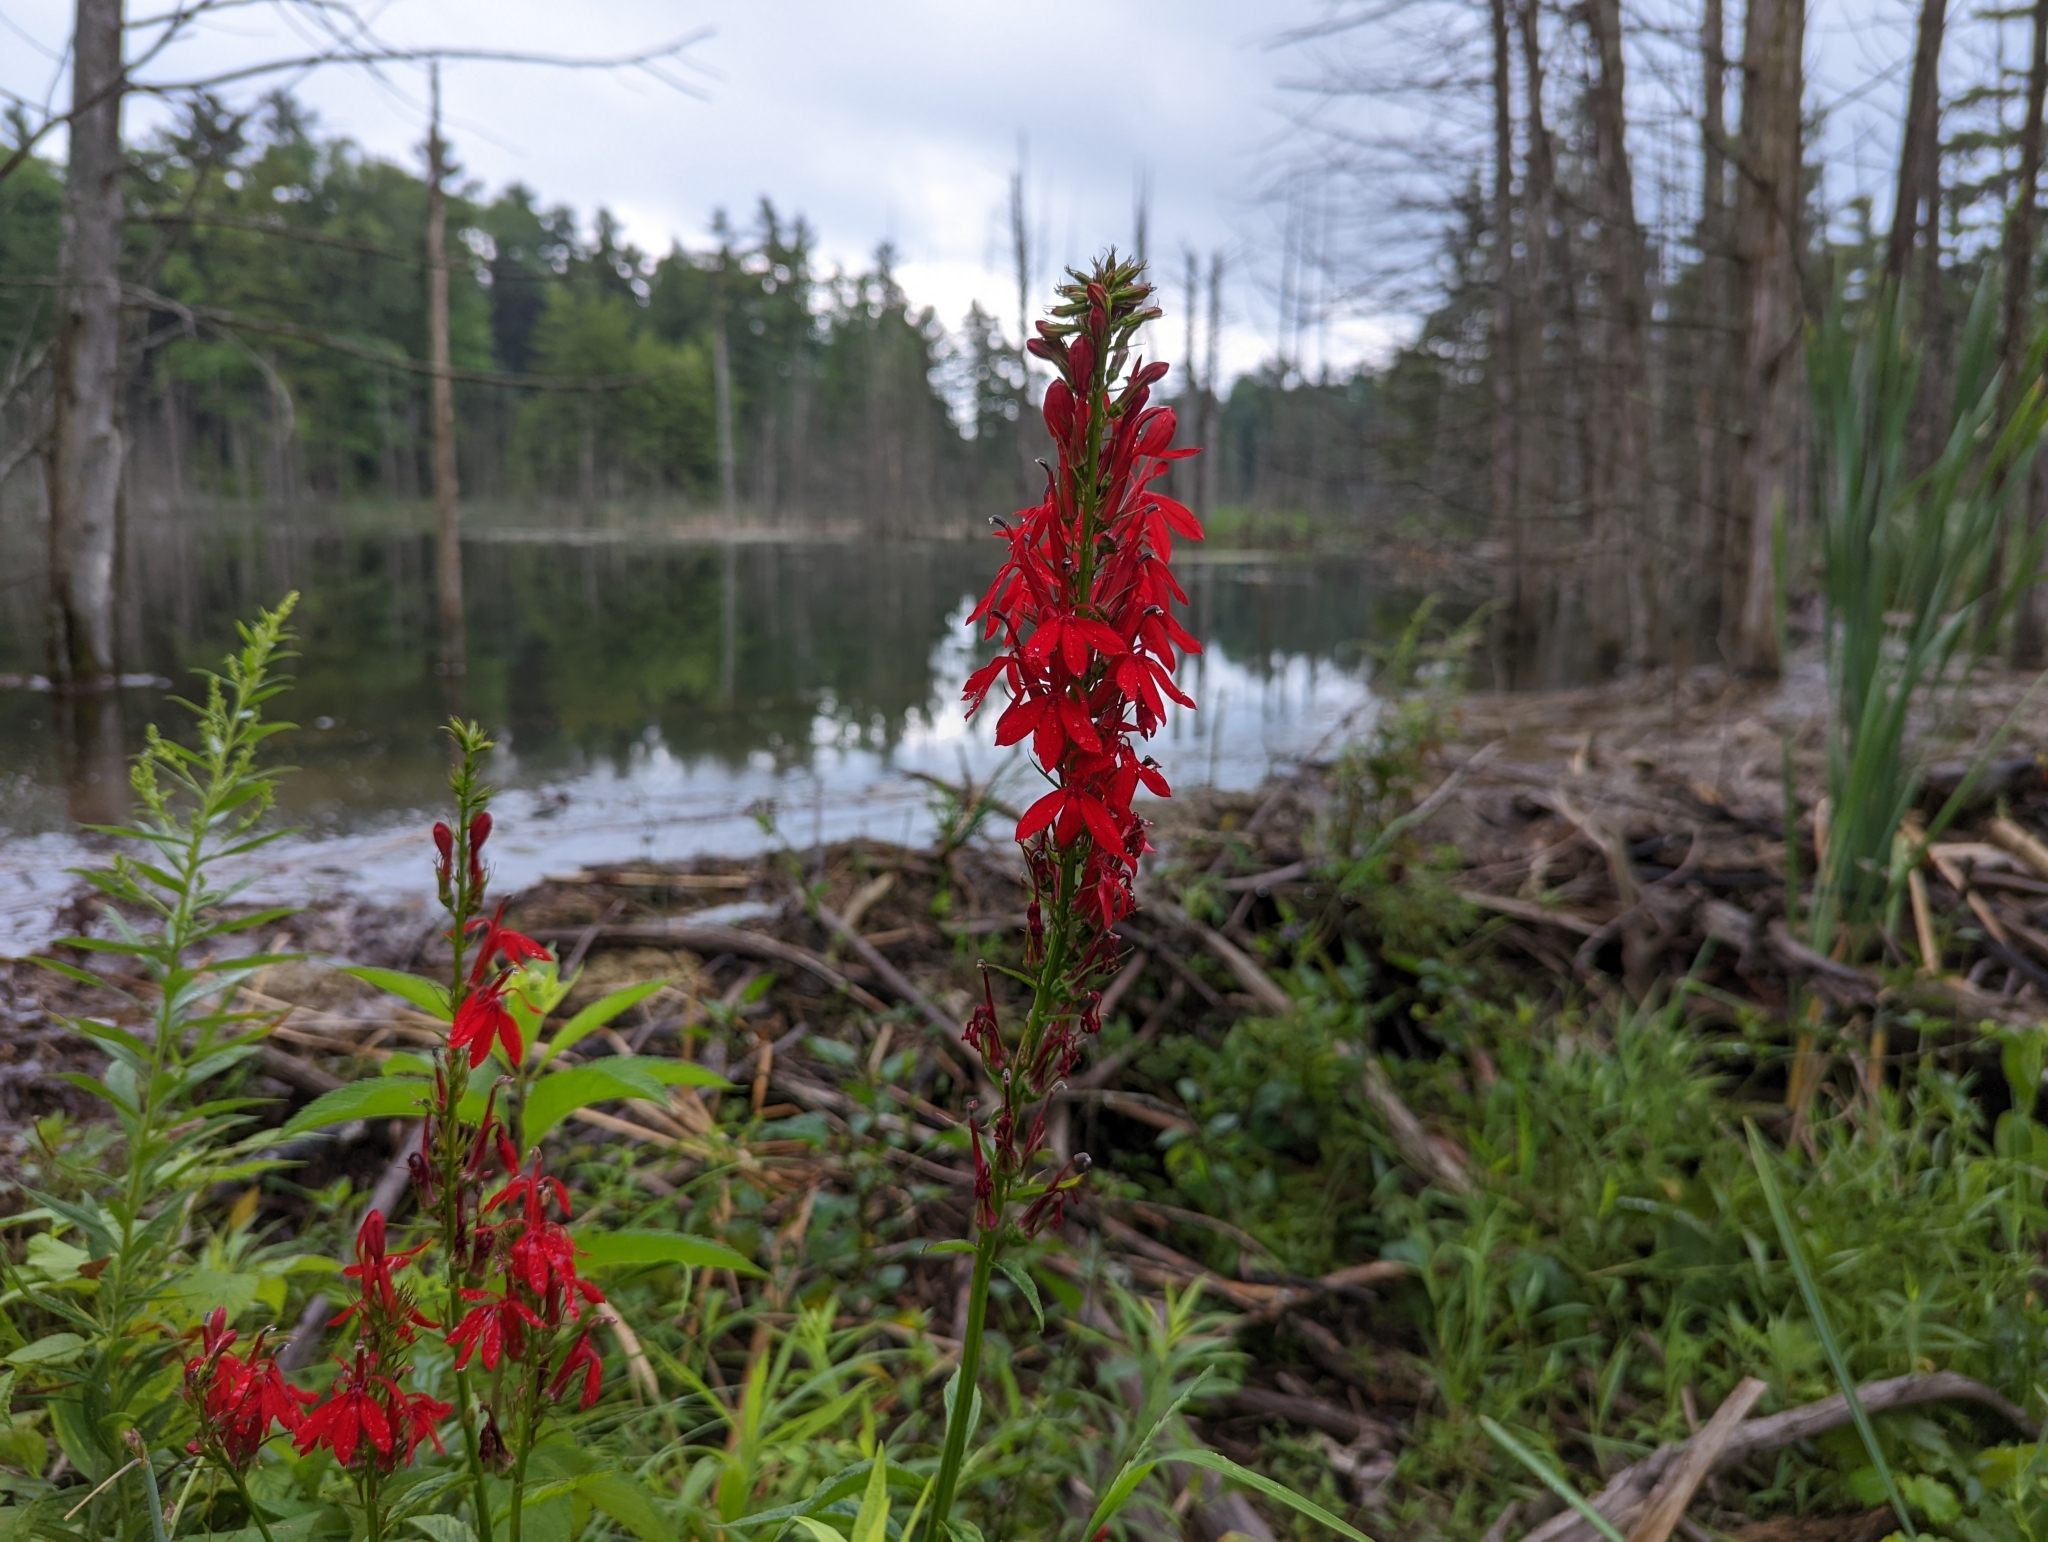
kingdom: Plantae
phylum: Tracheophyta
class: Magnoliopsida
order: Asterales
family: Campanulaceae
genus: Lobelia
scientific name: Lobelia cardinalis
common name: Cardinal flower
